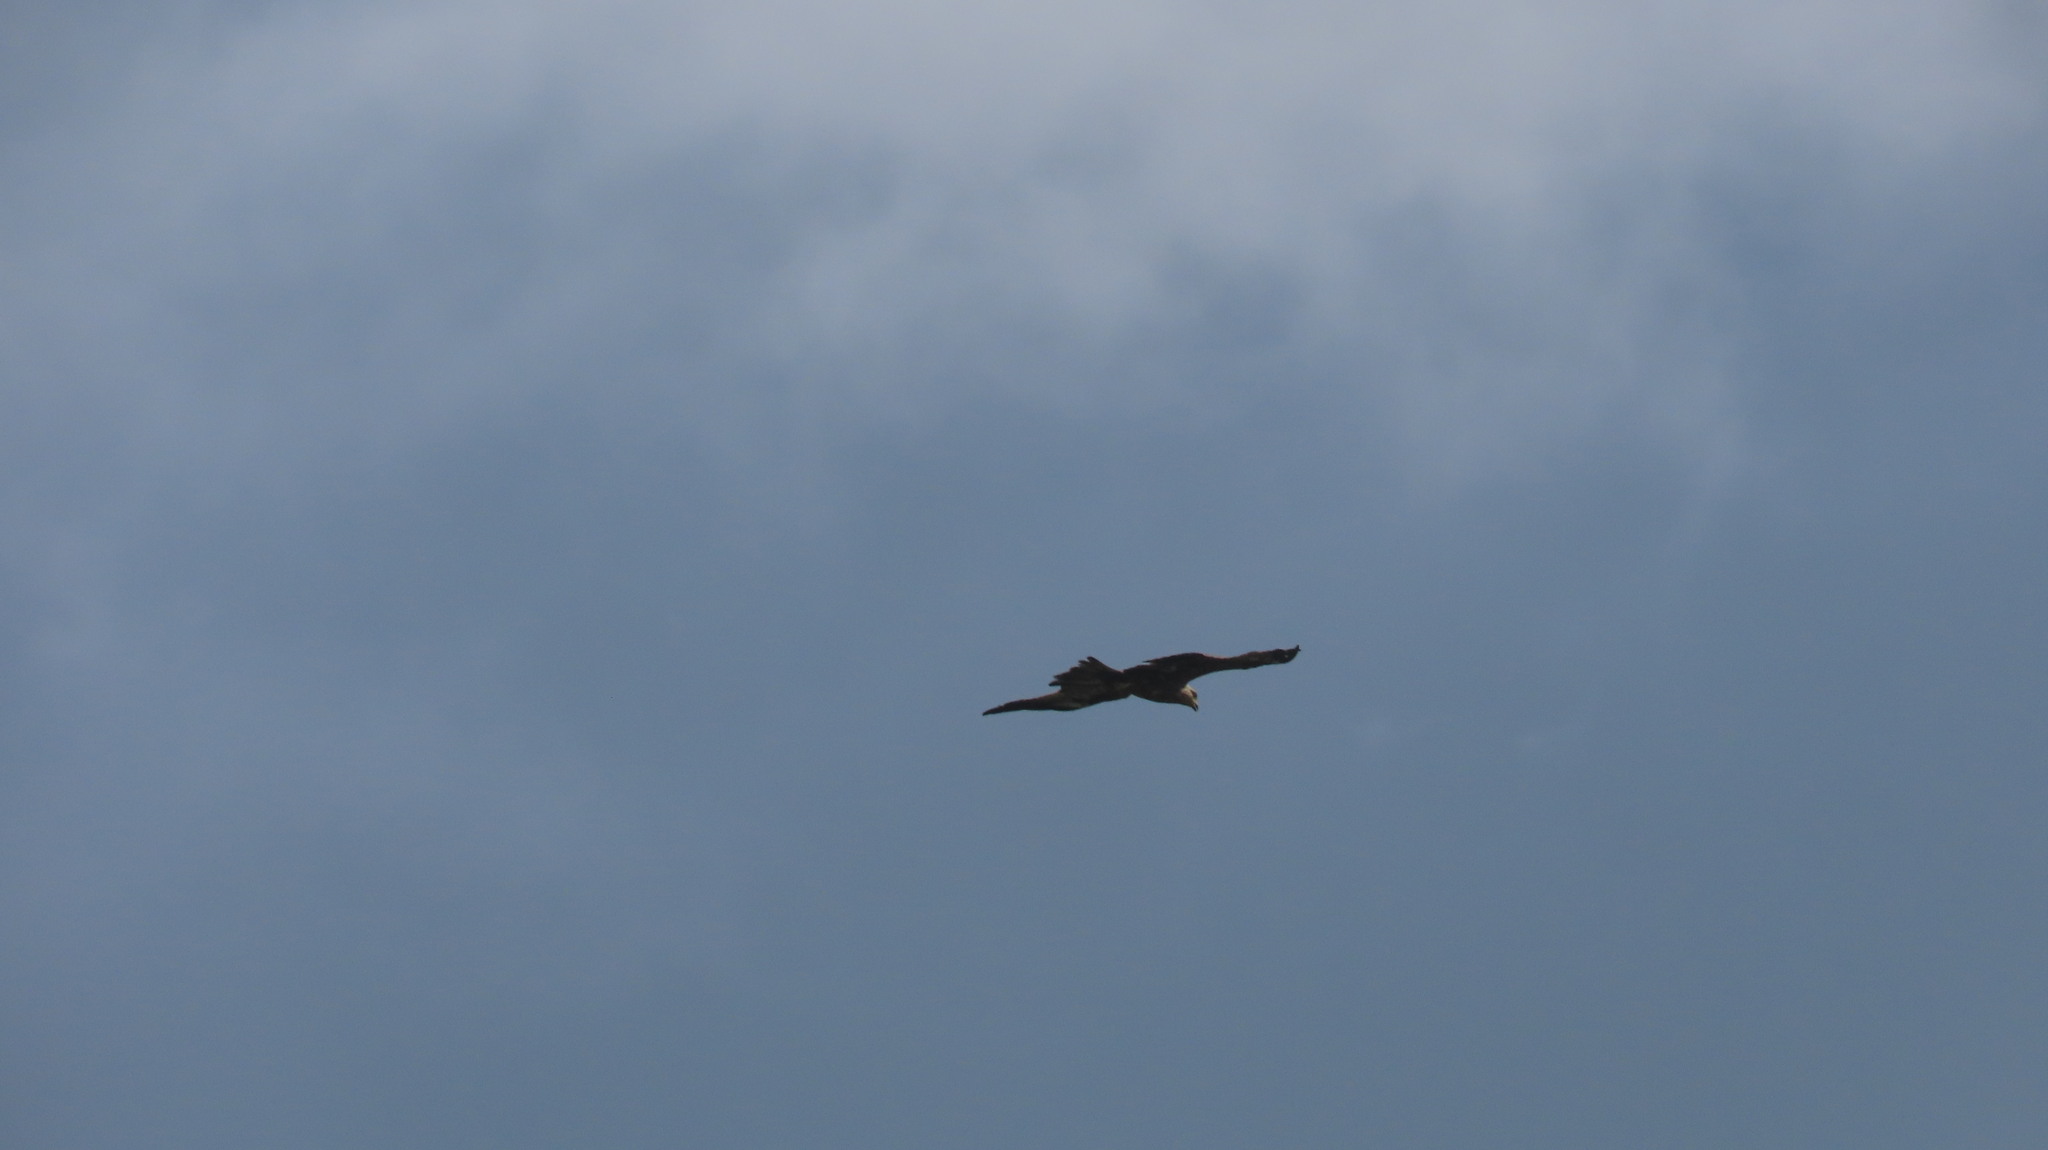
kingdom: Animalia
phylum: Chordata
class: Aves
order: Accipitriformes
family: Accipitridae
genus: Haliastur
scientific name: Haliastur indus
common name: Brahminy kite
